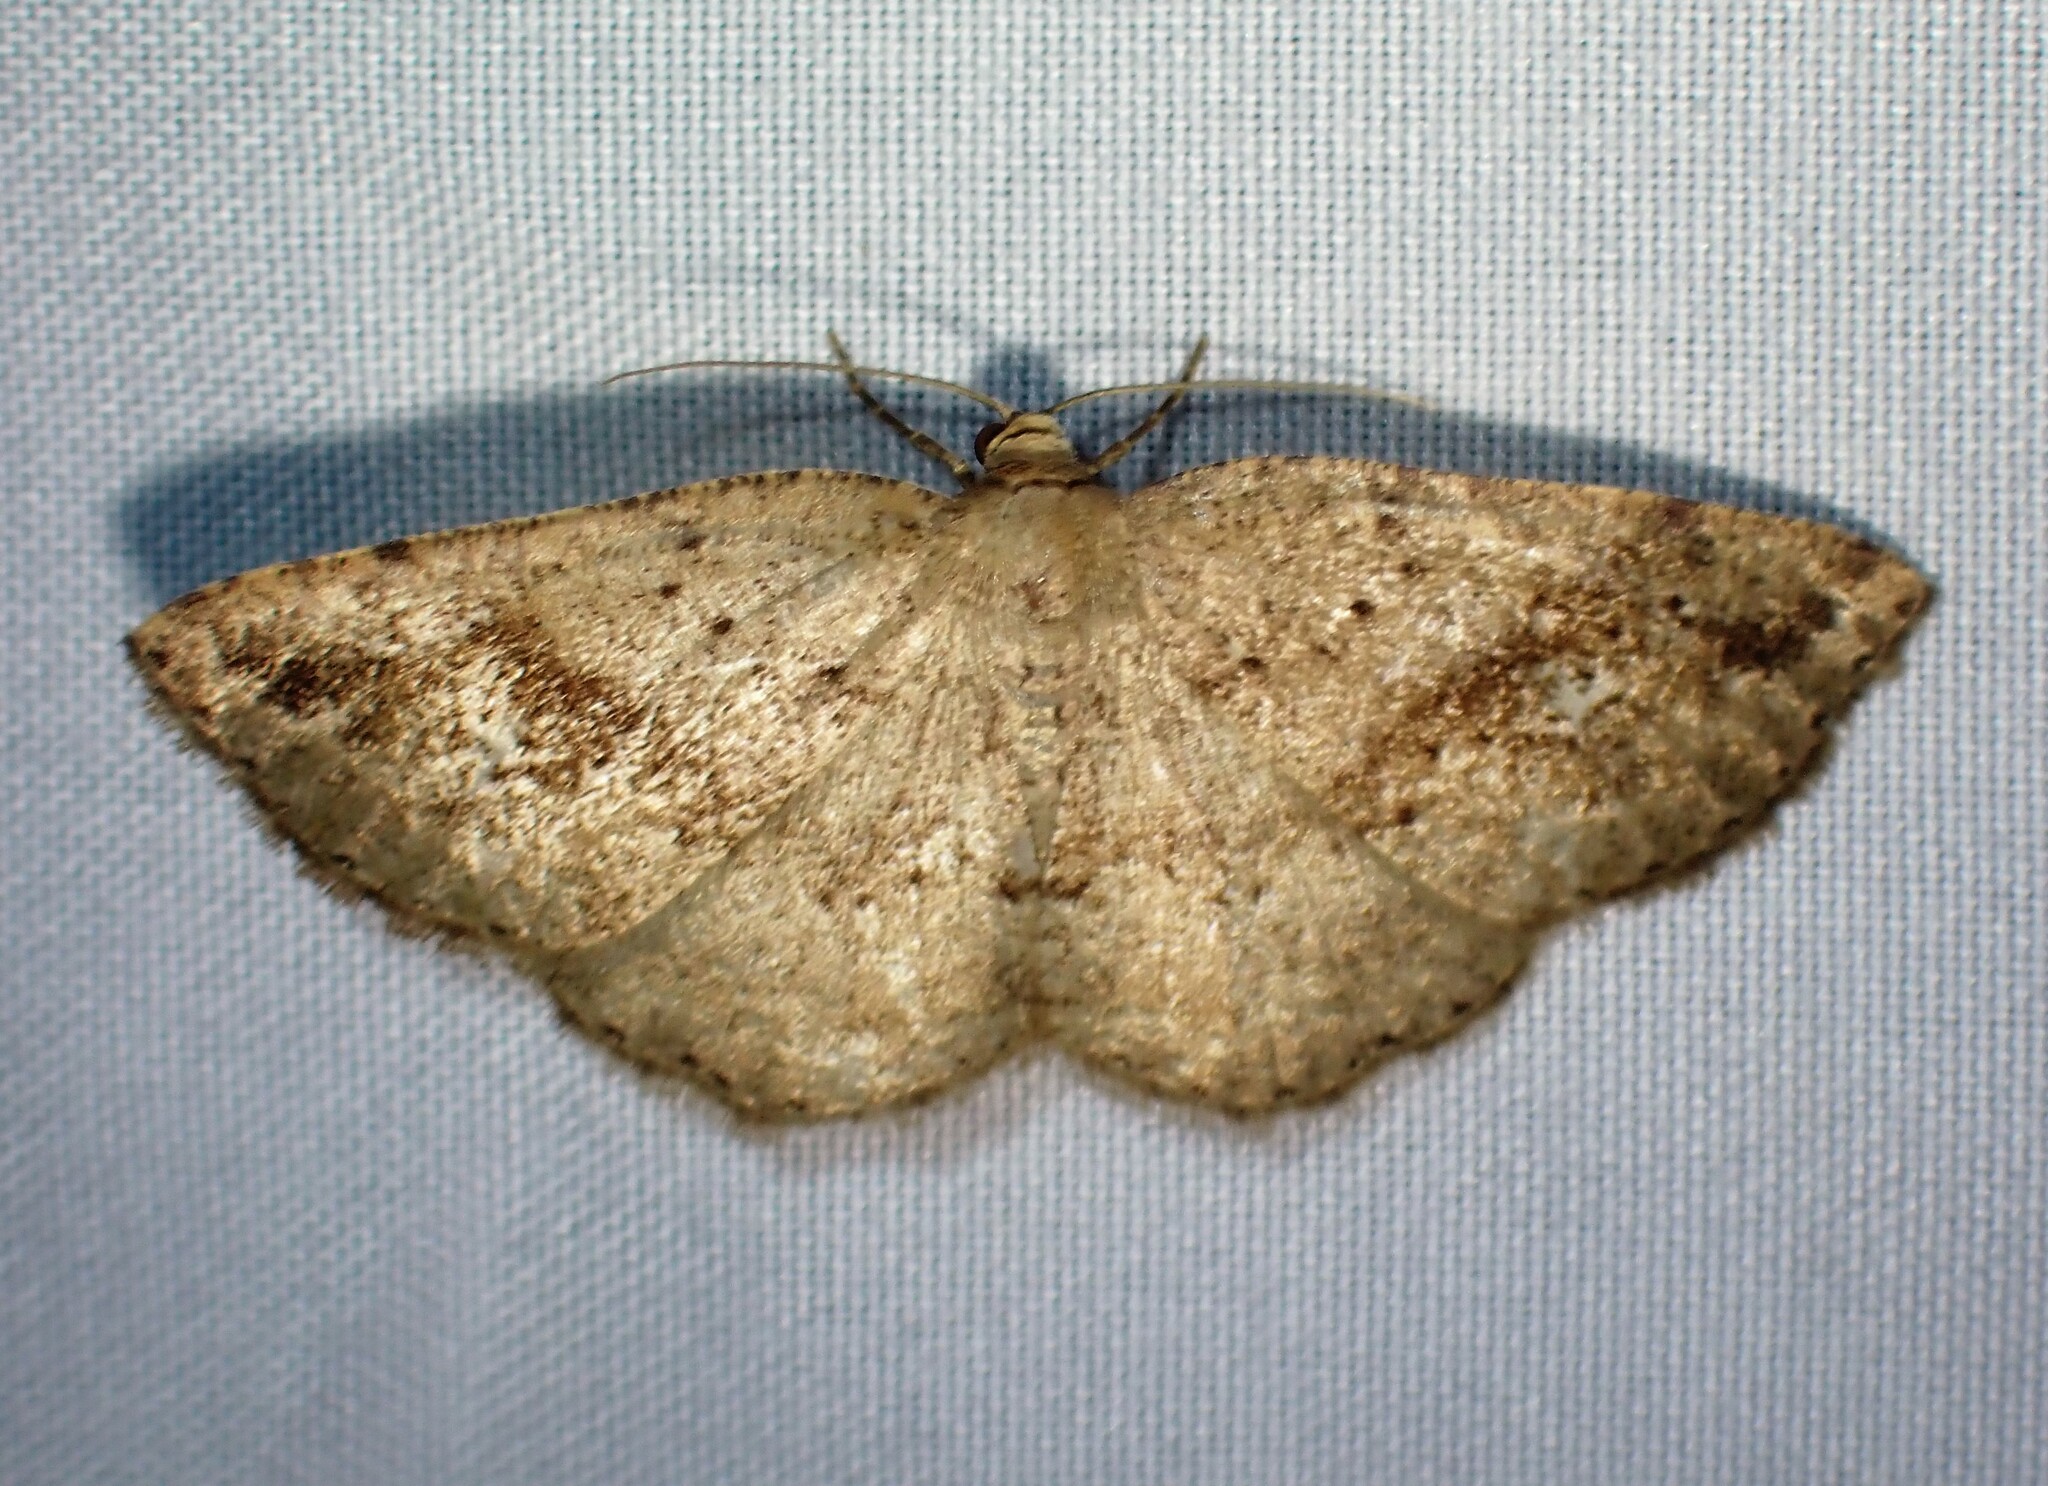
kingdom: Animalia
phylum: Arthropoda
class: Insecta
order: Lepidoptera
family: Geometridae
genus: Homochlodes
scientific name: Homochlodes fritillaria
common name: Pale homochlodes
